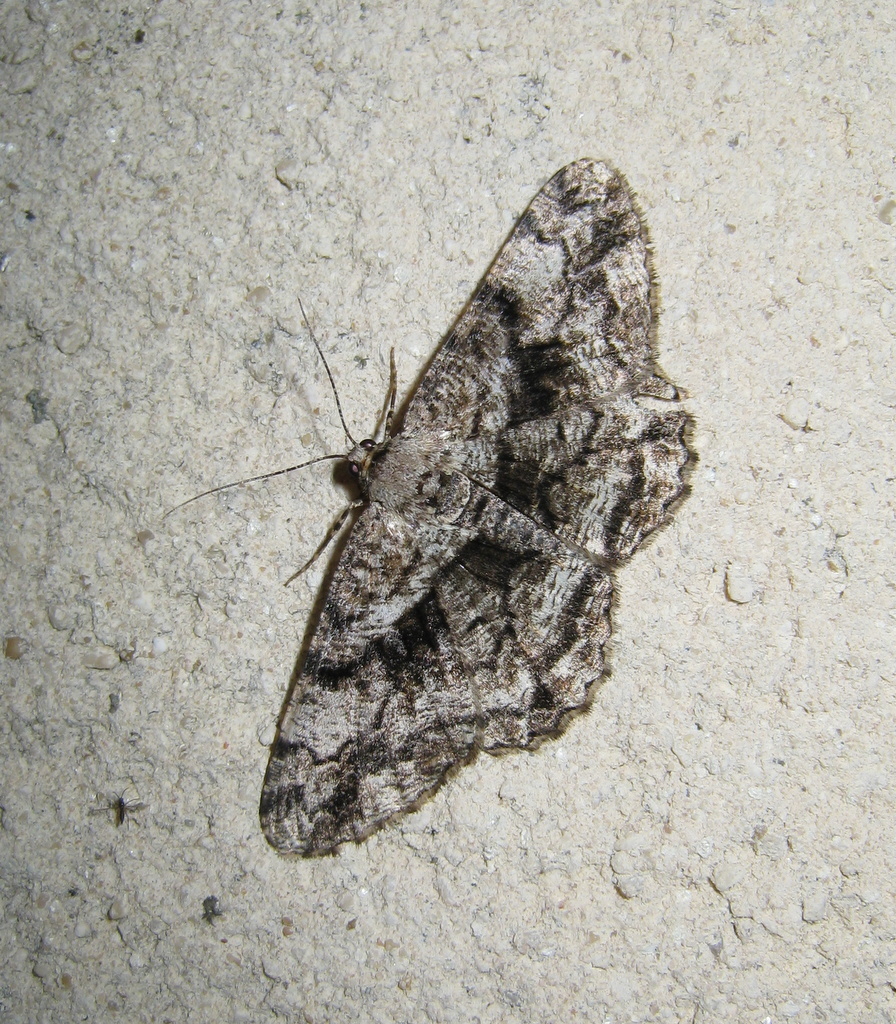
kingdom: Animalia
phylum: Arthropoda
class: Insecta
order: Lepidoptera
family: Geometridae
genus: Peribatodes
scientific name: Peribatodes umbraria
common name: Olive-tree beauty
